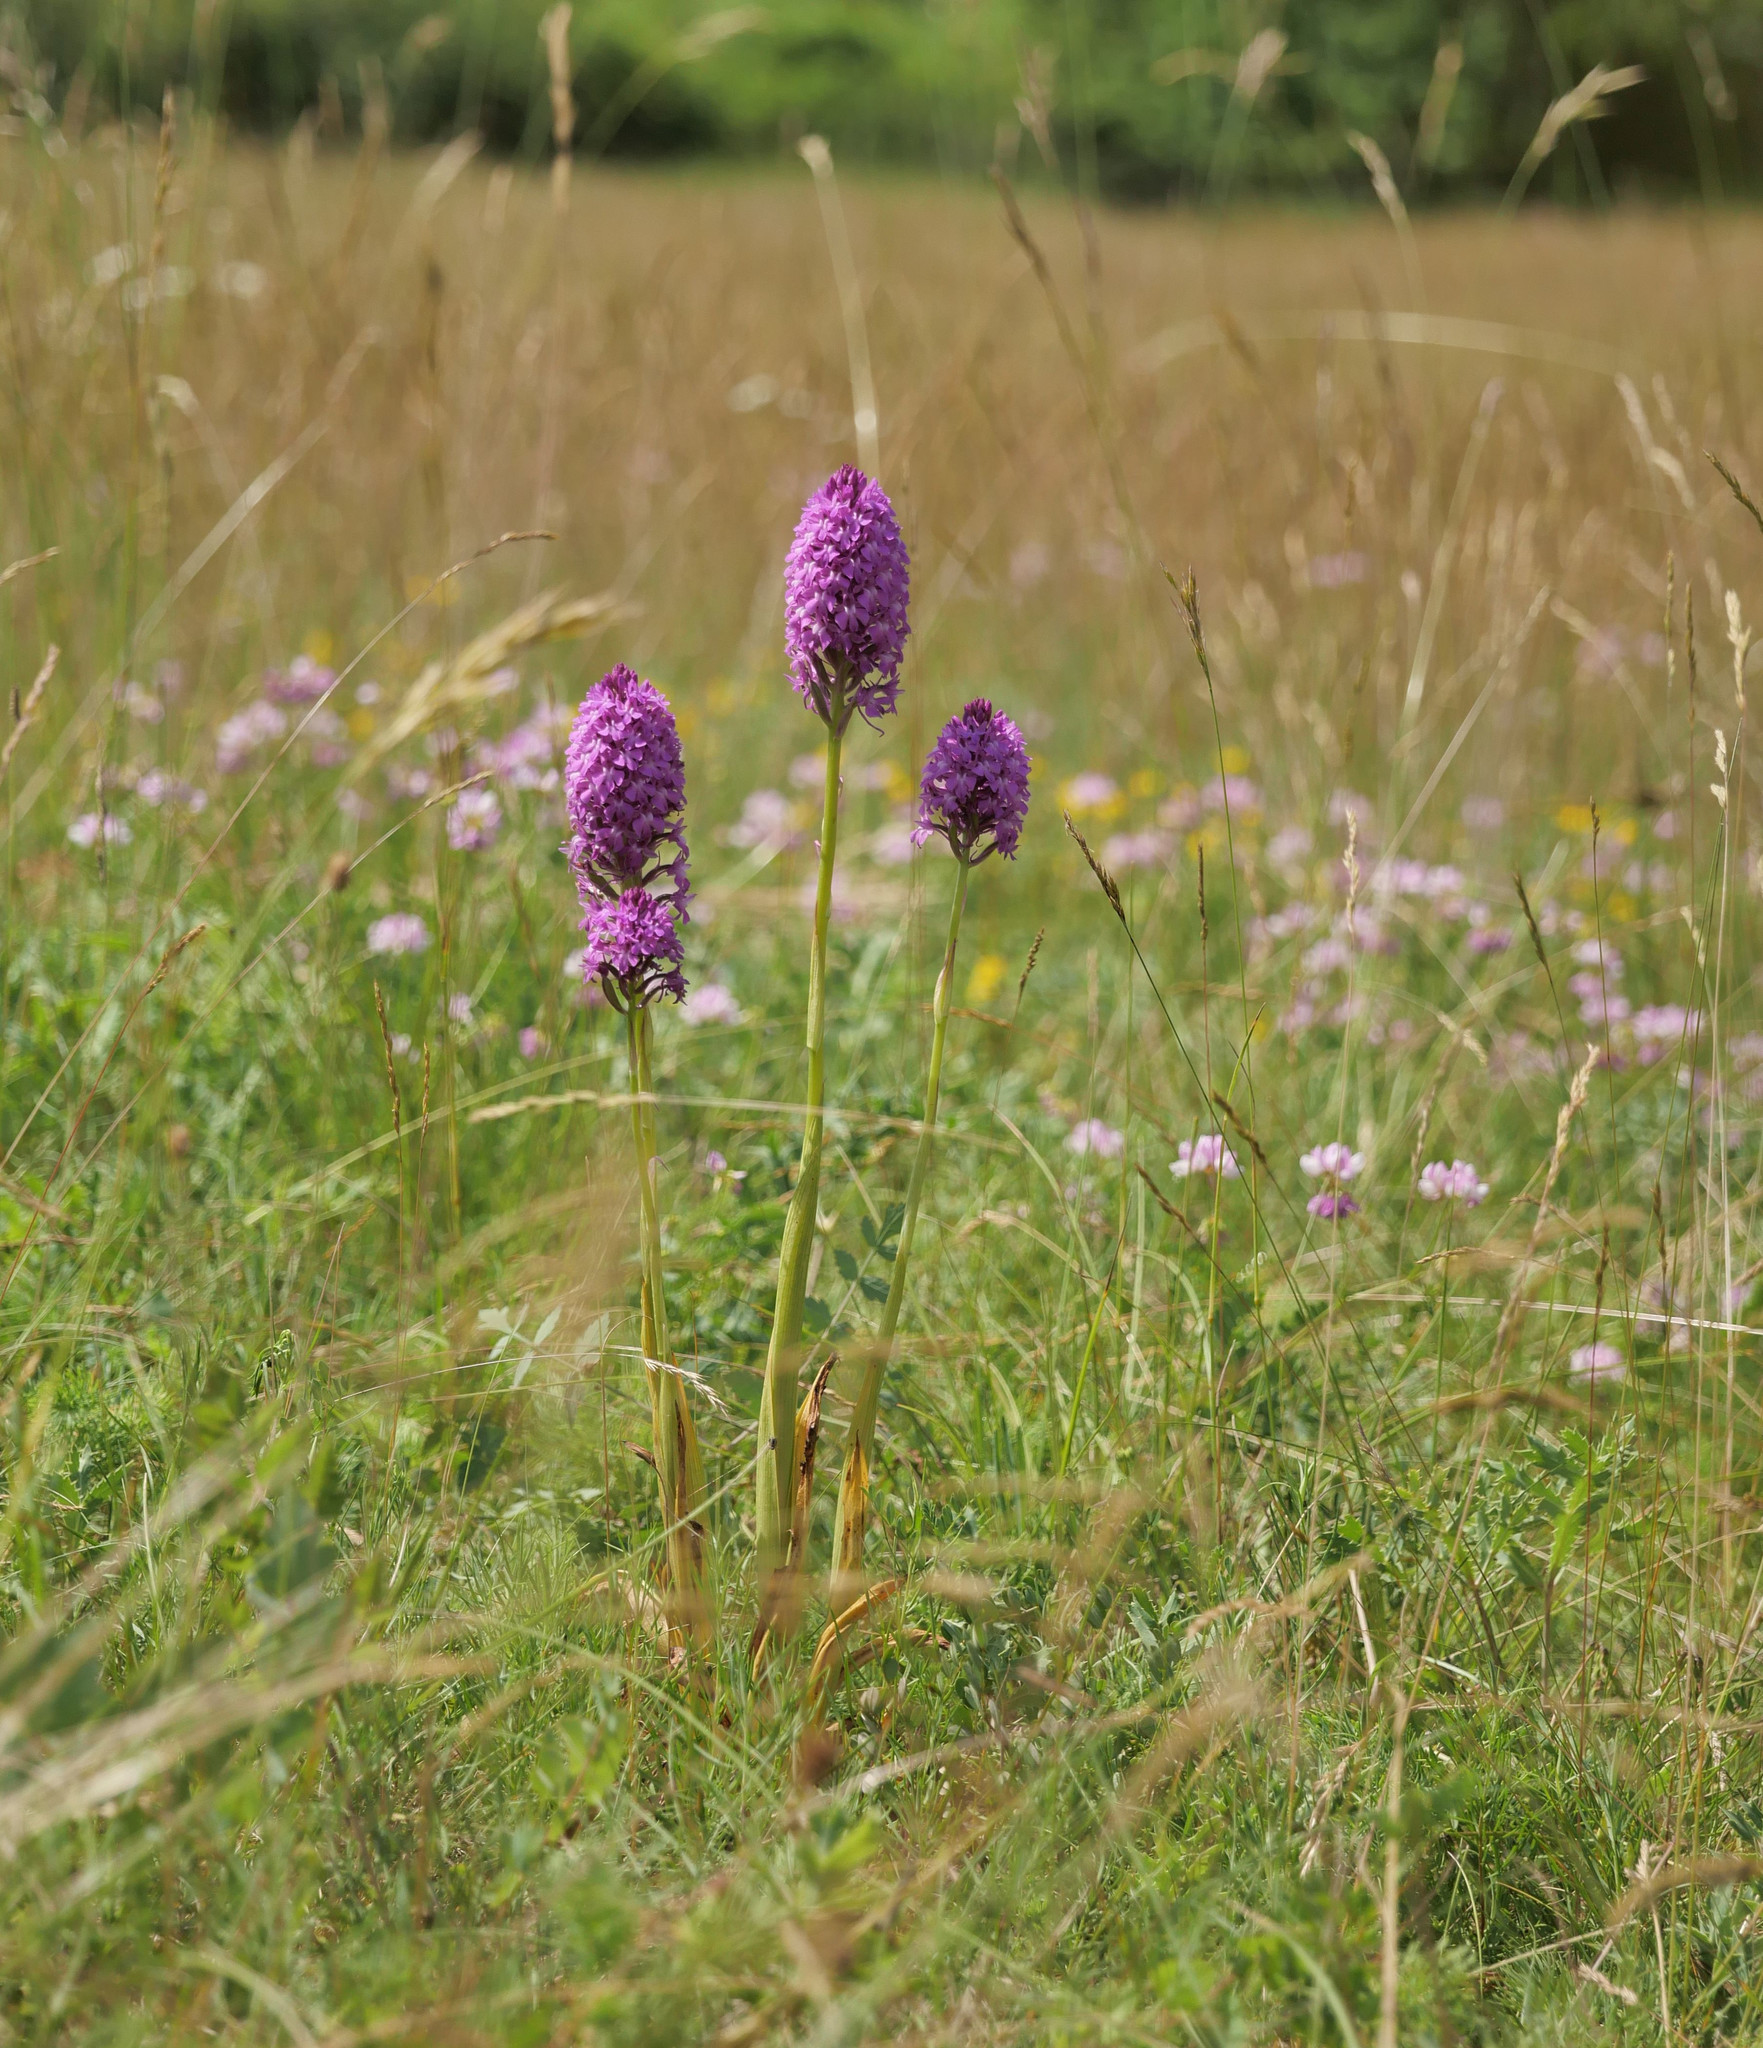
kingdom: Plantae
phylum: Tracheophyta
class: Liliopsida
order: Asparagales
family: Orchidaceae
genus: Anacamptis
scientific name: Anacamptis pyramidalis
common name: Pyramidal orchid
